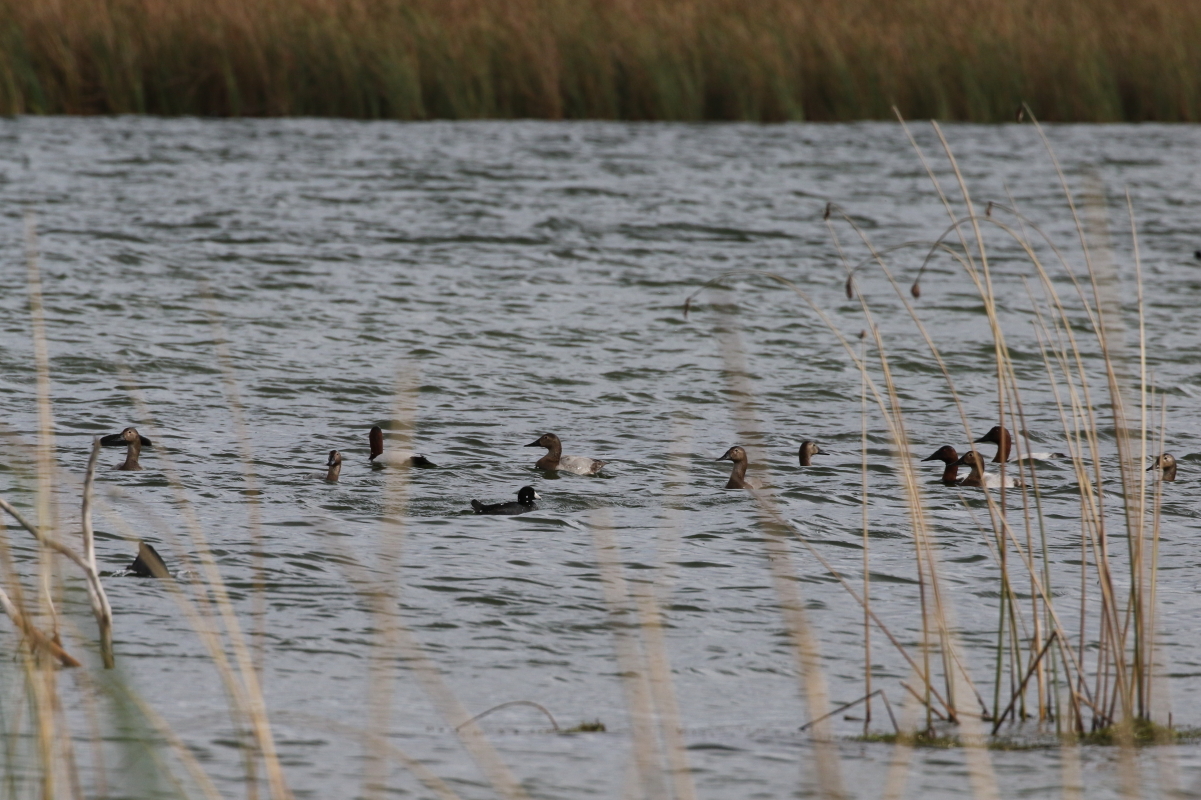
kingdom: Animalia
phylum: Chordata
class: Aves
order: Anseriformes
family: Anatidae
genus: Aythya
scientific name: Aythya valisineria
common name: Canvasback
